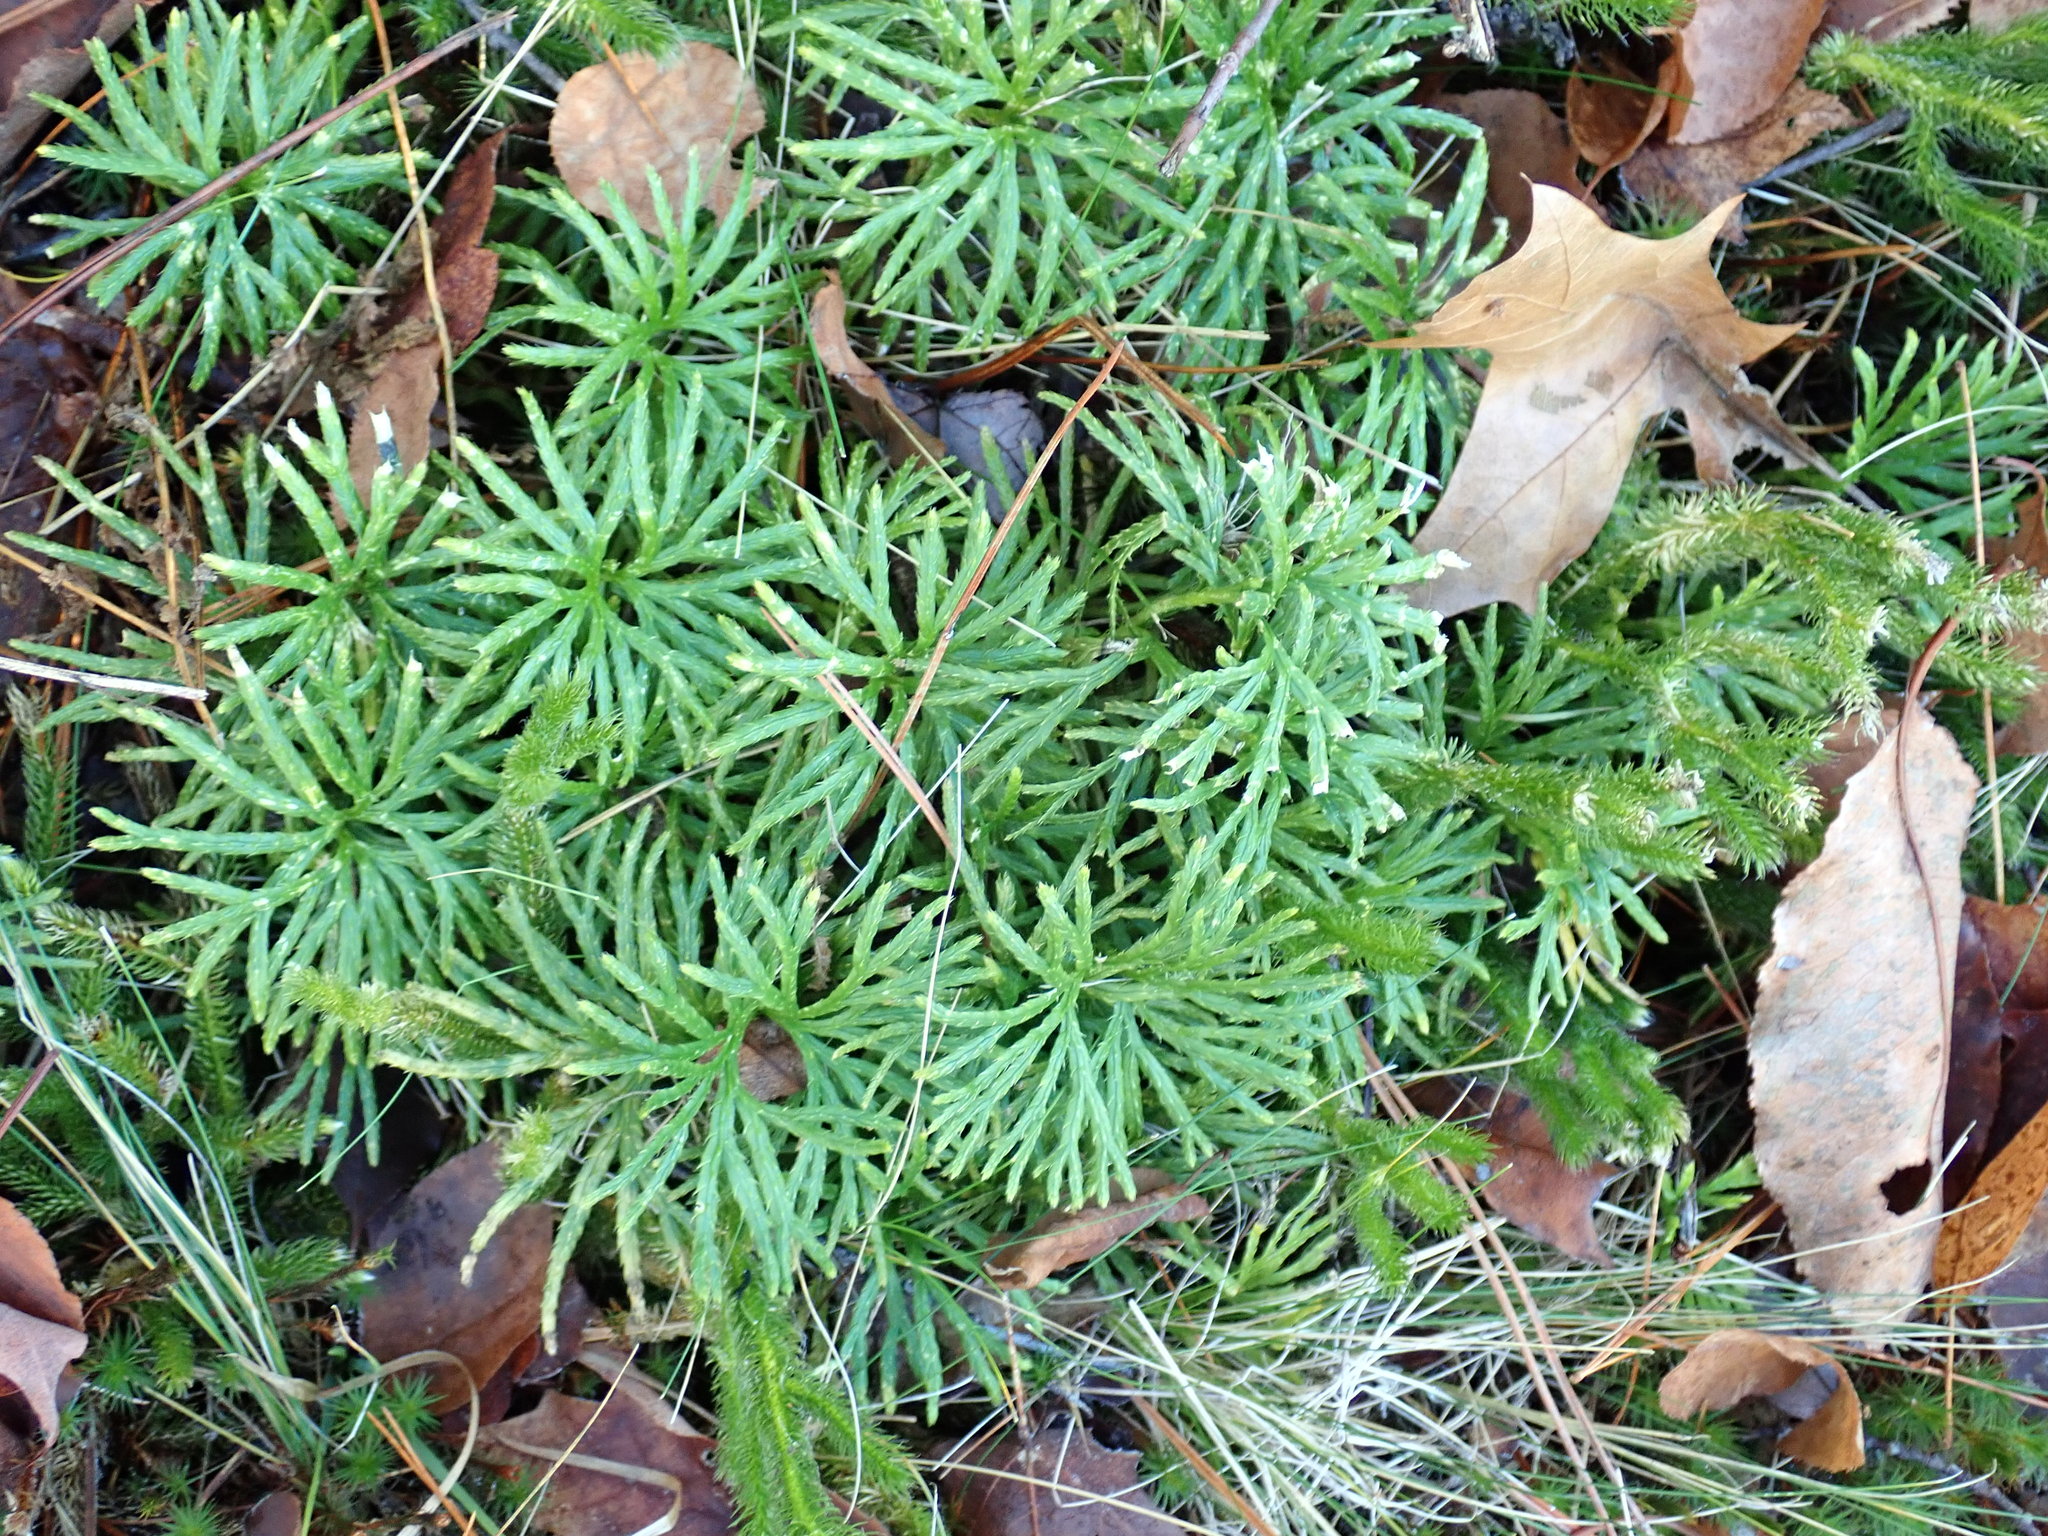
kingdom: Plantae
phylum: Tracheophyta
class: Lycopodiopsida
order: Lycopodiales
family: Lycopodiaceae
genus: Diphasiastrum
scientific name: Diphasiastrum digitatum
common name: Southern running-pine
